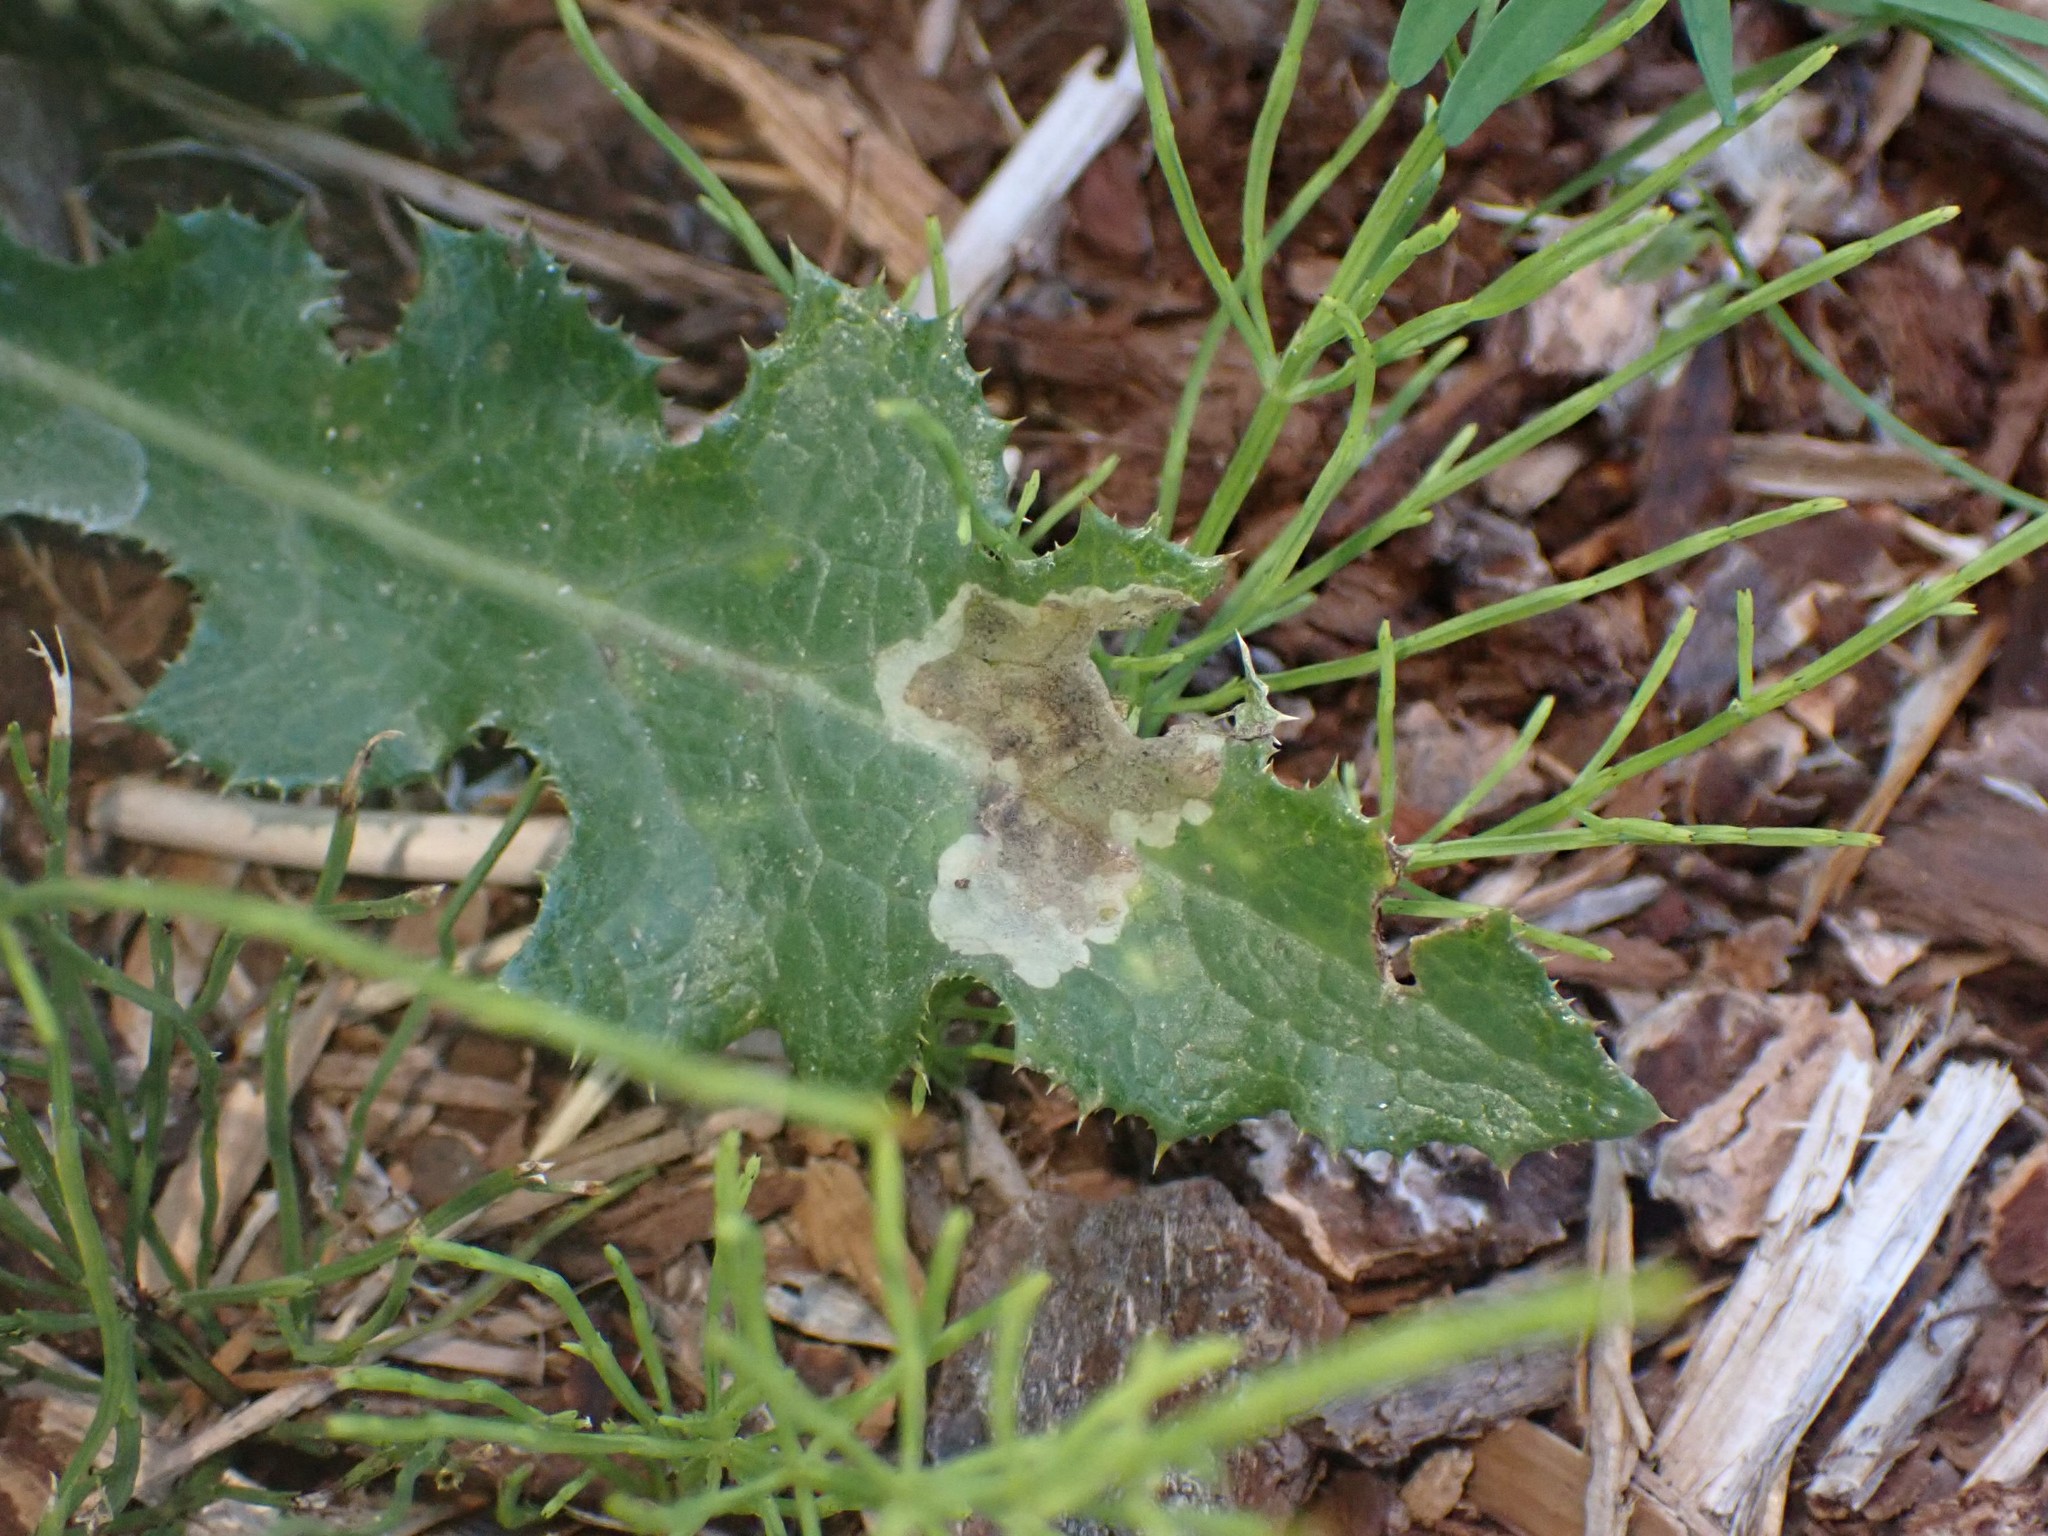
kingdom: Animalia
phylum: Arthropoda
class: Insecta
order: Diptera
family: Agromyzidae
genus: Liriomyza
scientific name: Liriomyza taraxaci
